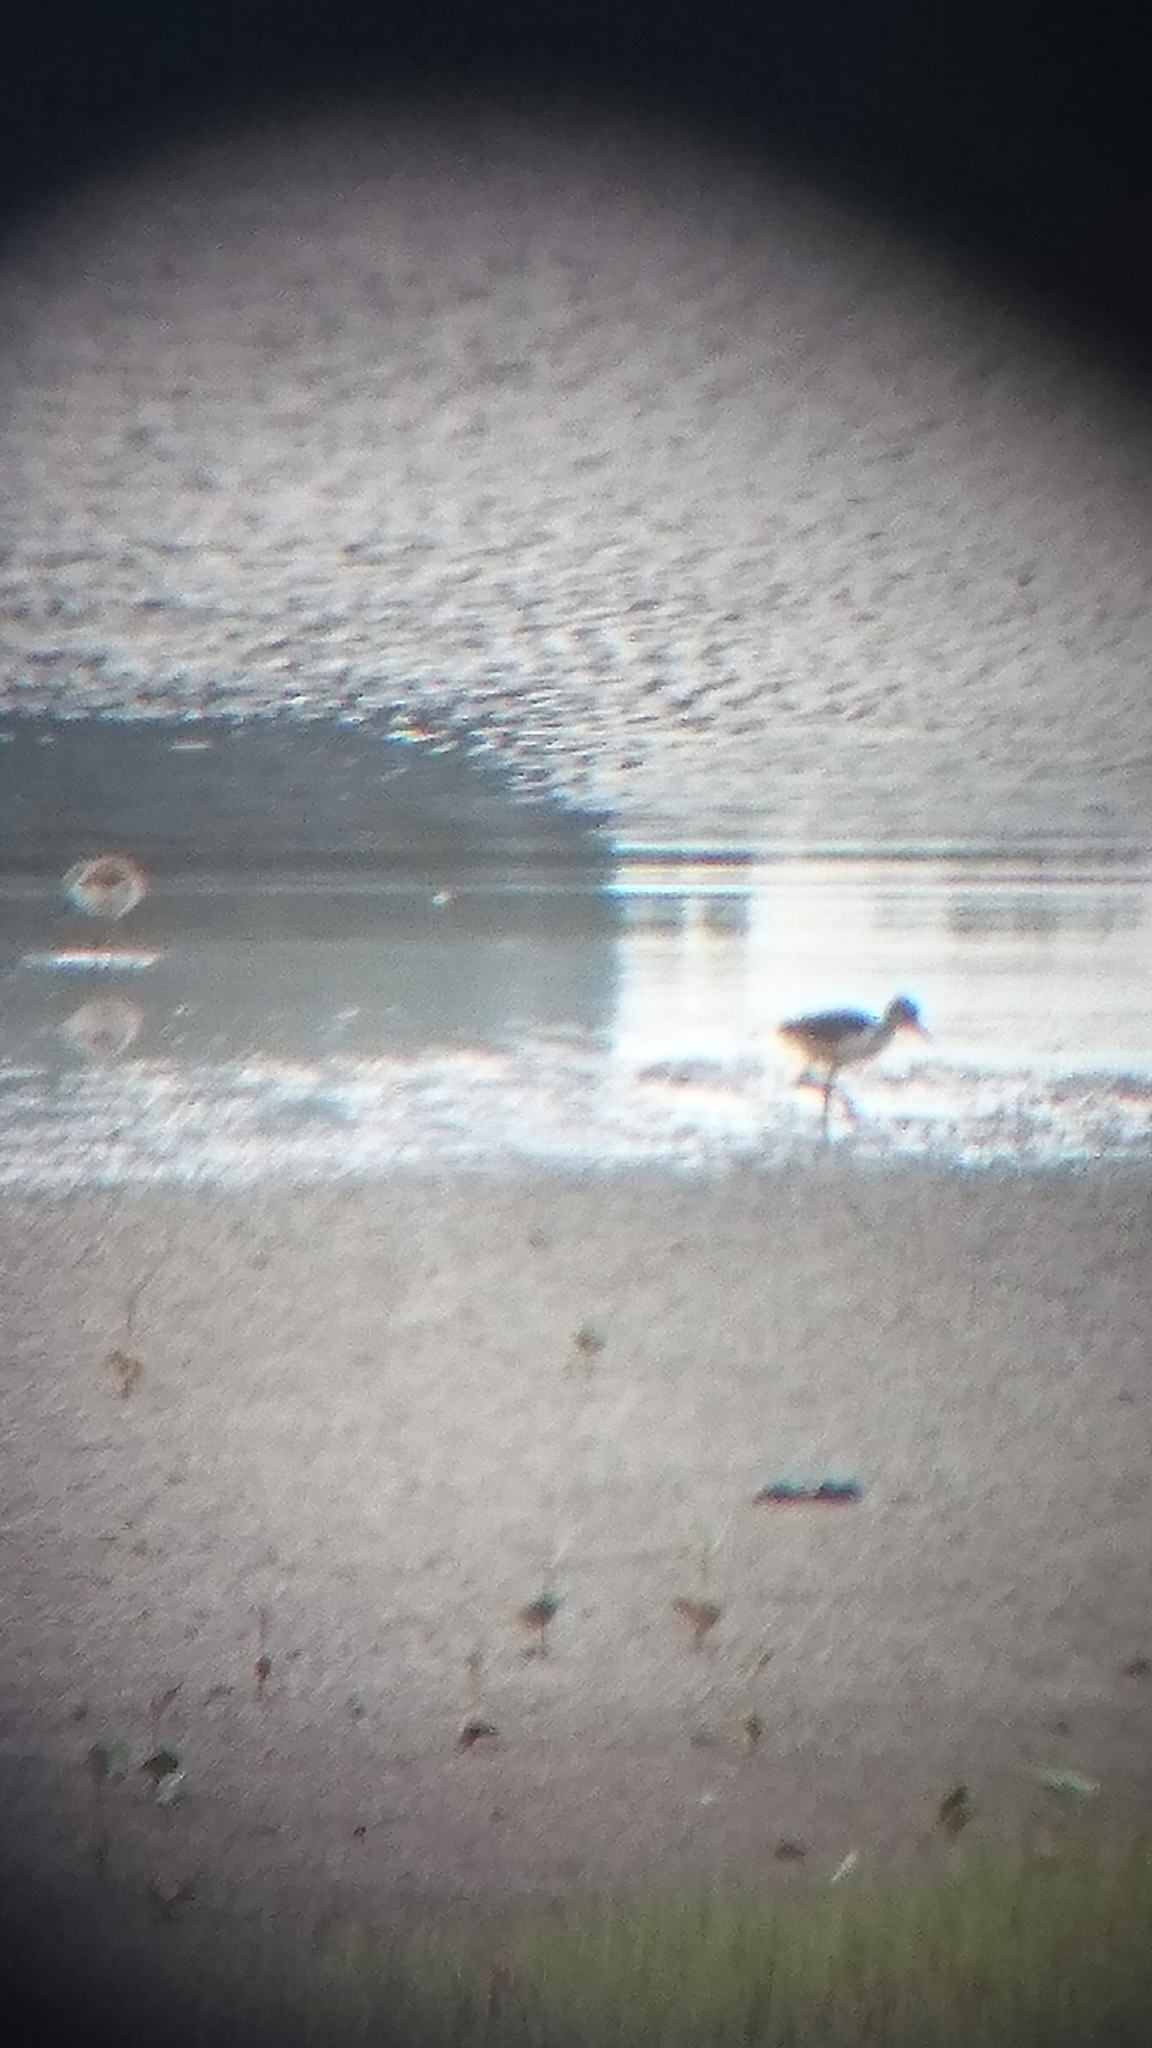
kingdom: Animalia
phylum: Chordata
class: Aves
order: Charadriiformes
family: Recurvirostridae
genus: Himantopus
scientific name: Himantopus leucocephalus
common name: White-headed stilt
